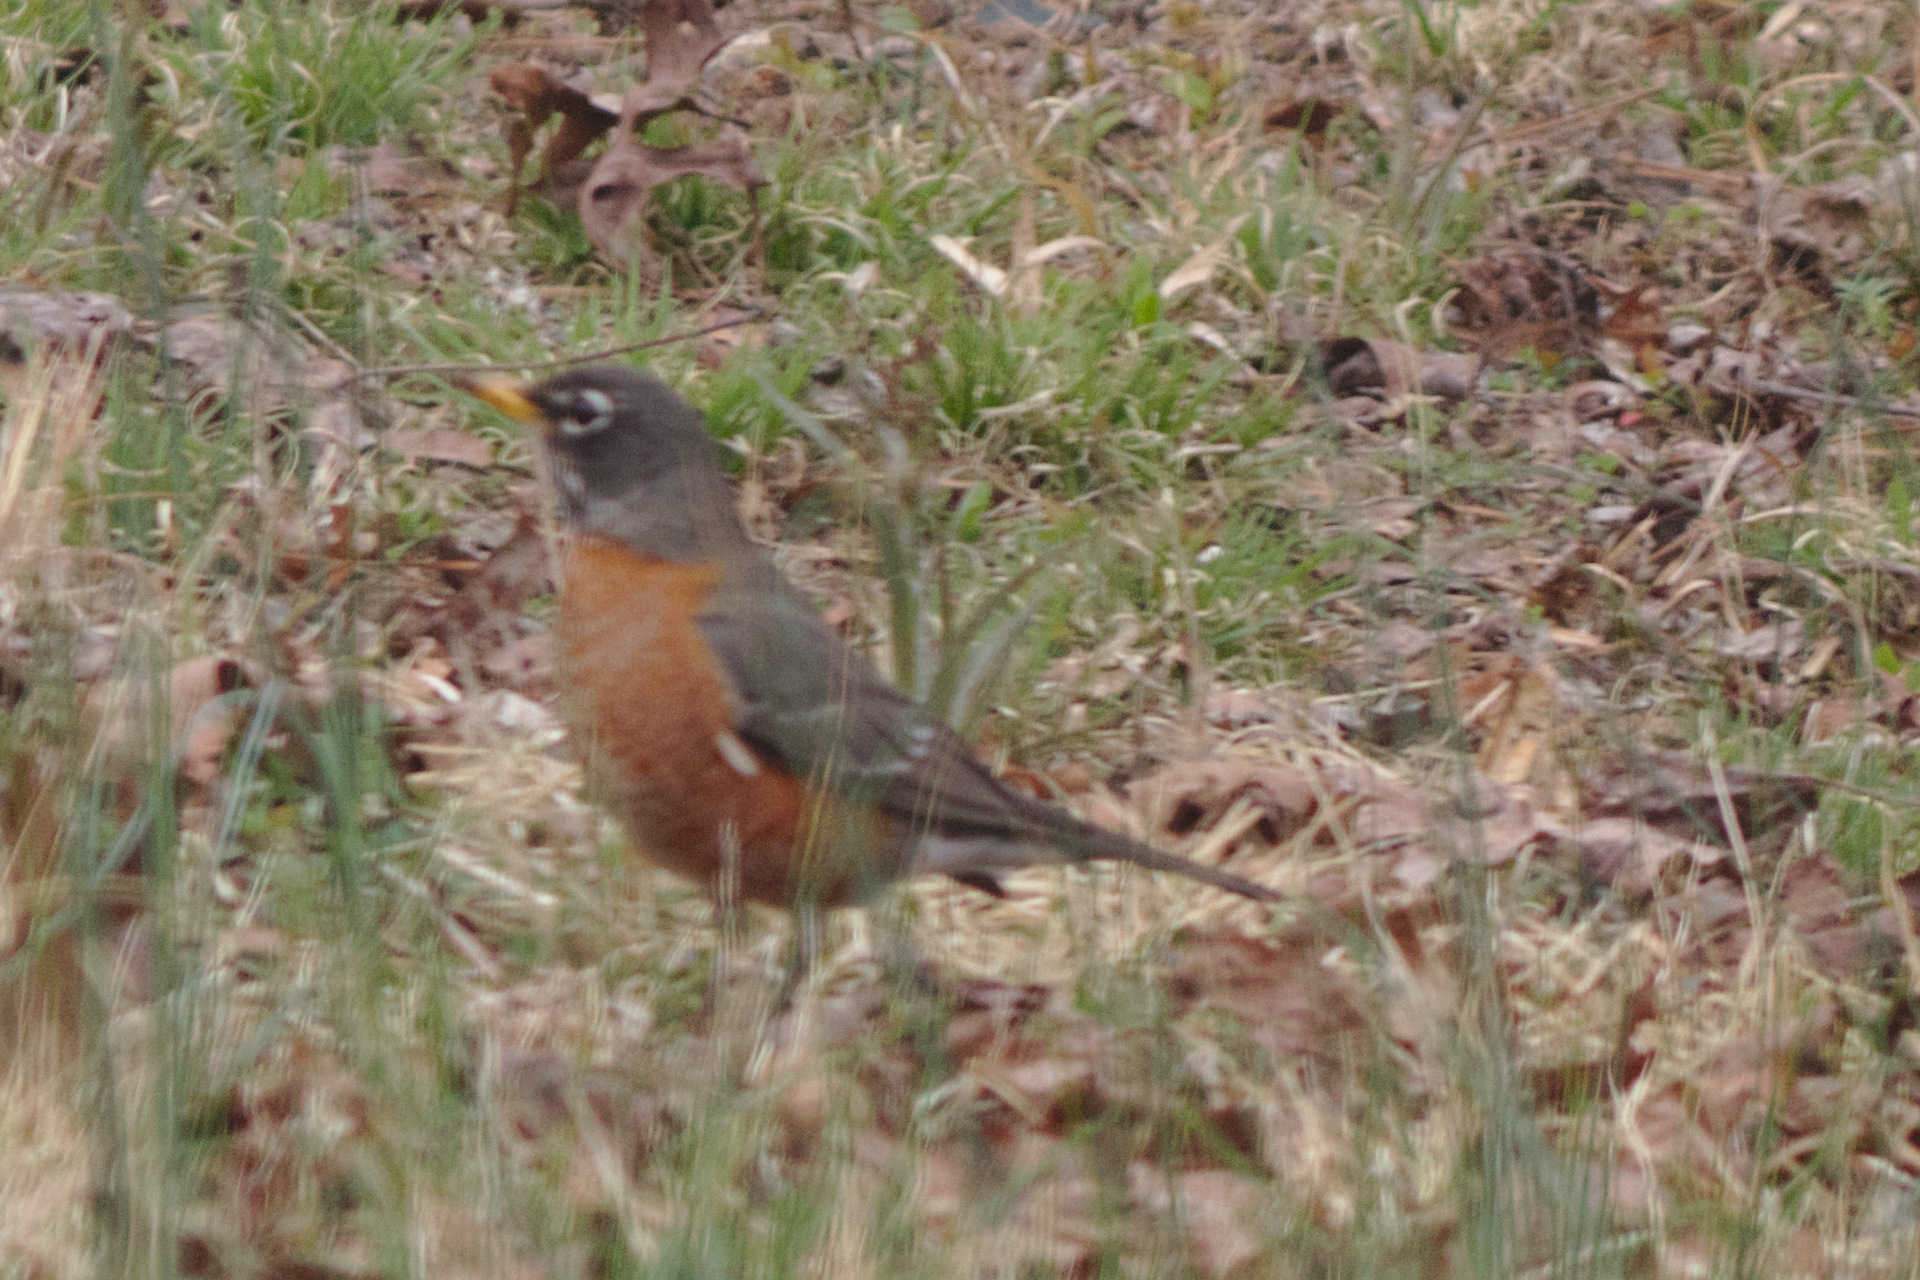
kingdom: Animalia
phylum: Chordata
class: Aves
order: Passeriformes
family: Turdidae
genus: Turdus
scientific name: Turdus migratorius
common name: American robin
